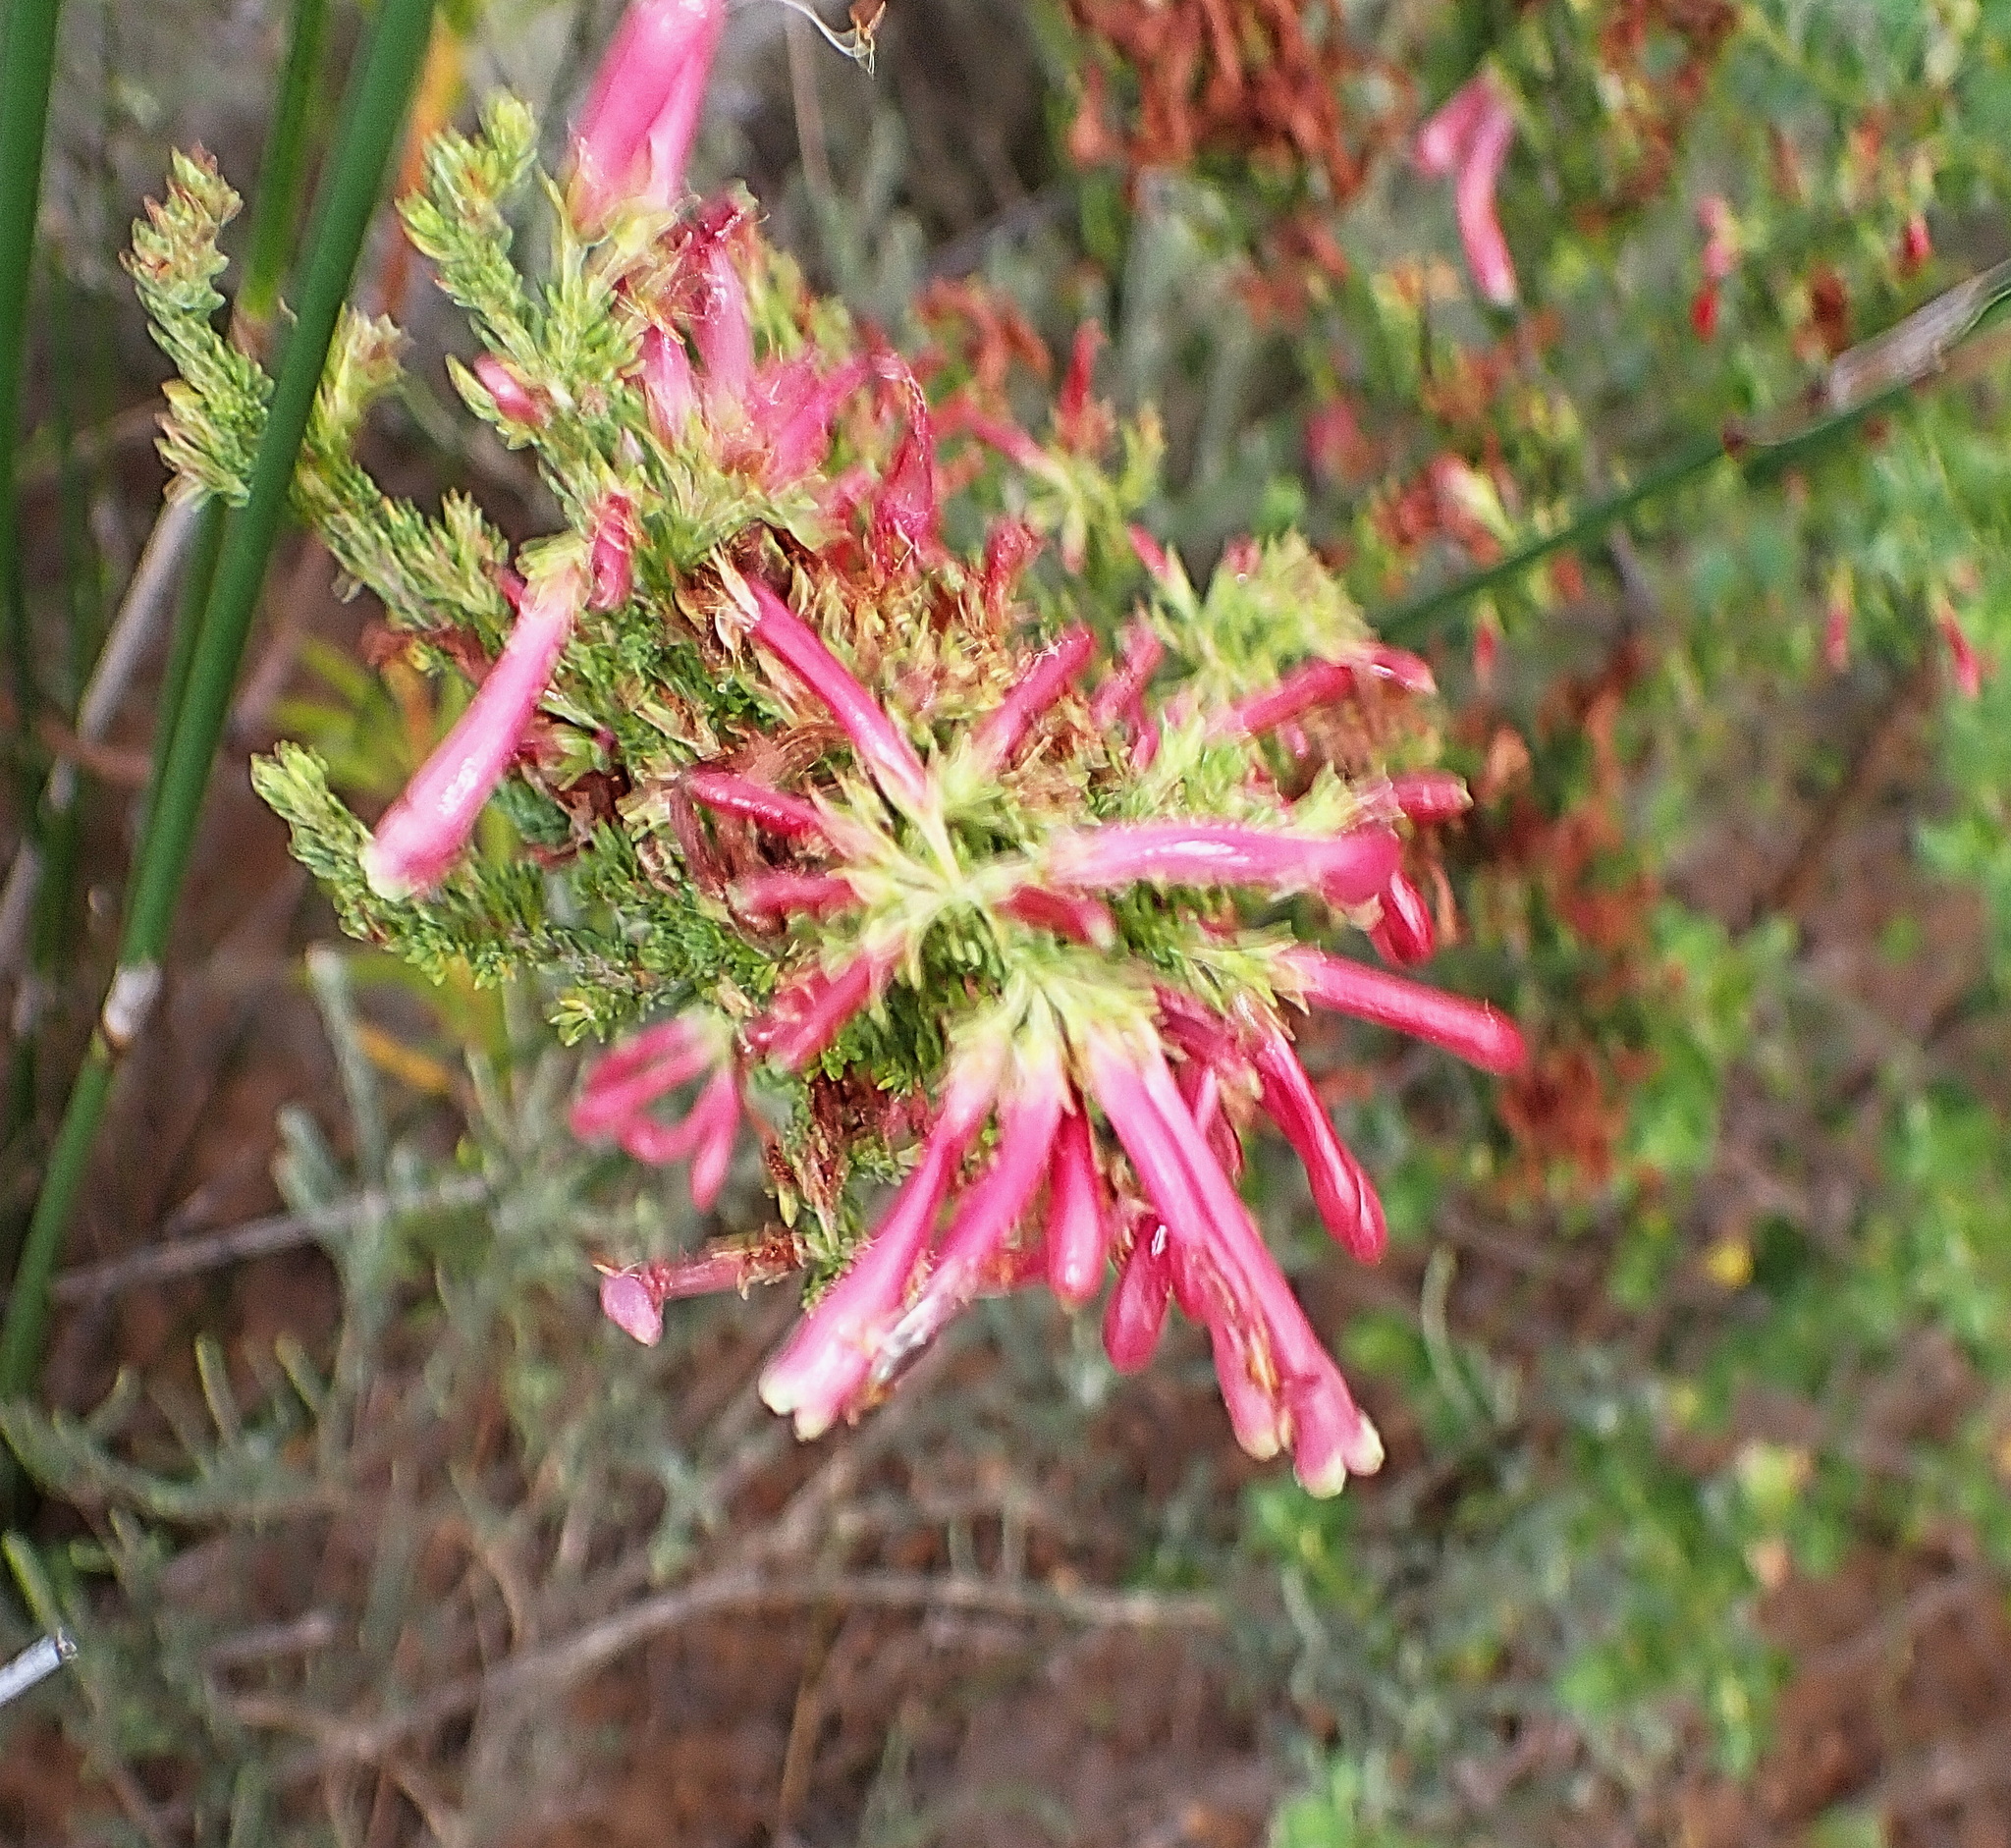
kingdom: Plantae
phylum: Tracheophyta
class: Magnoliopsida
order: Ericales
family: Ericaceae
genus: Erica
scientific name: Erica versicolor
